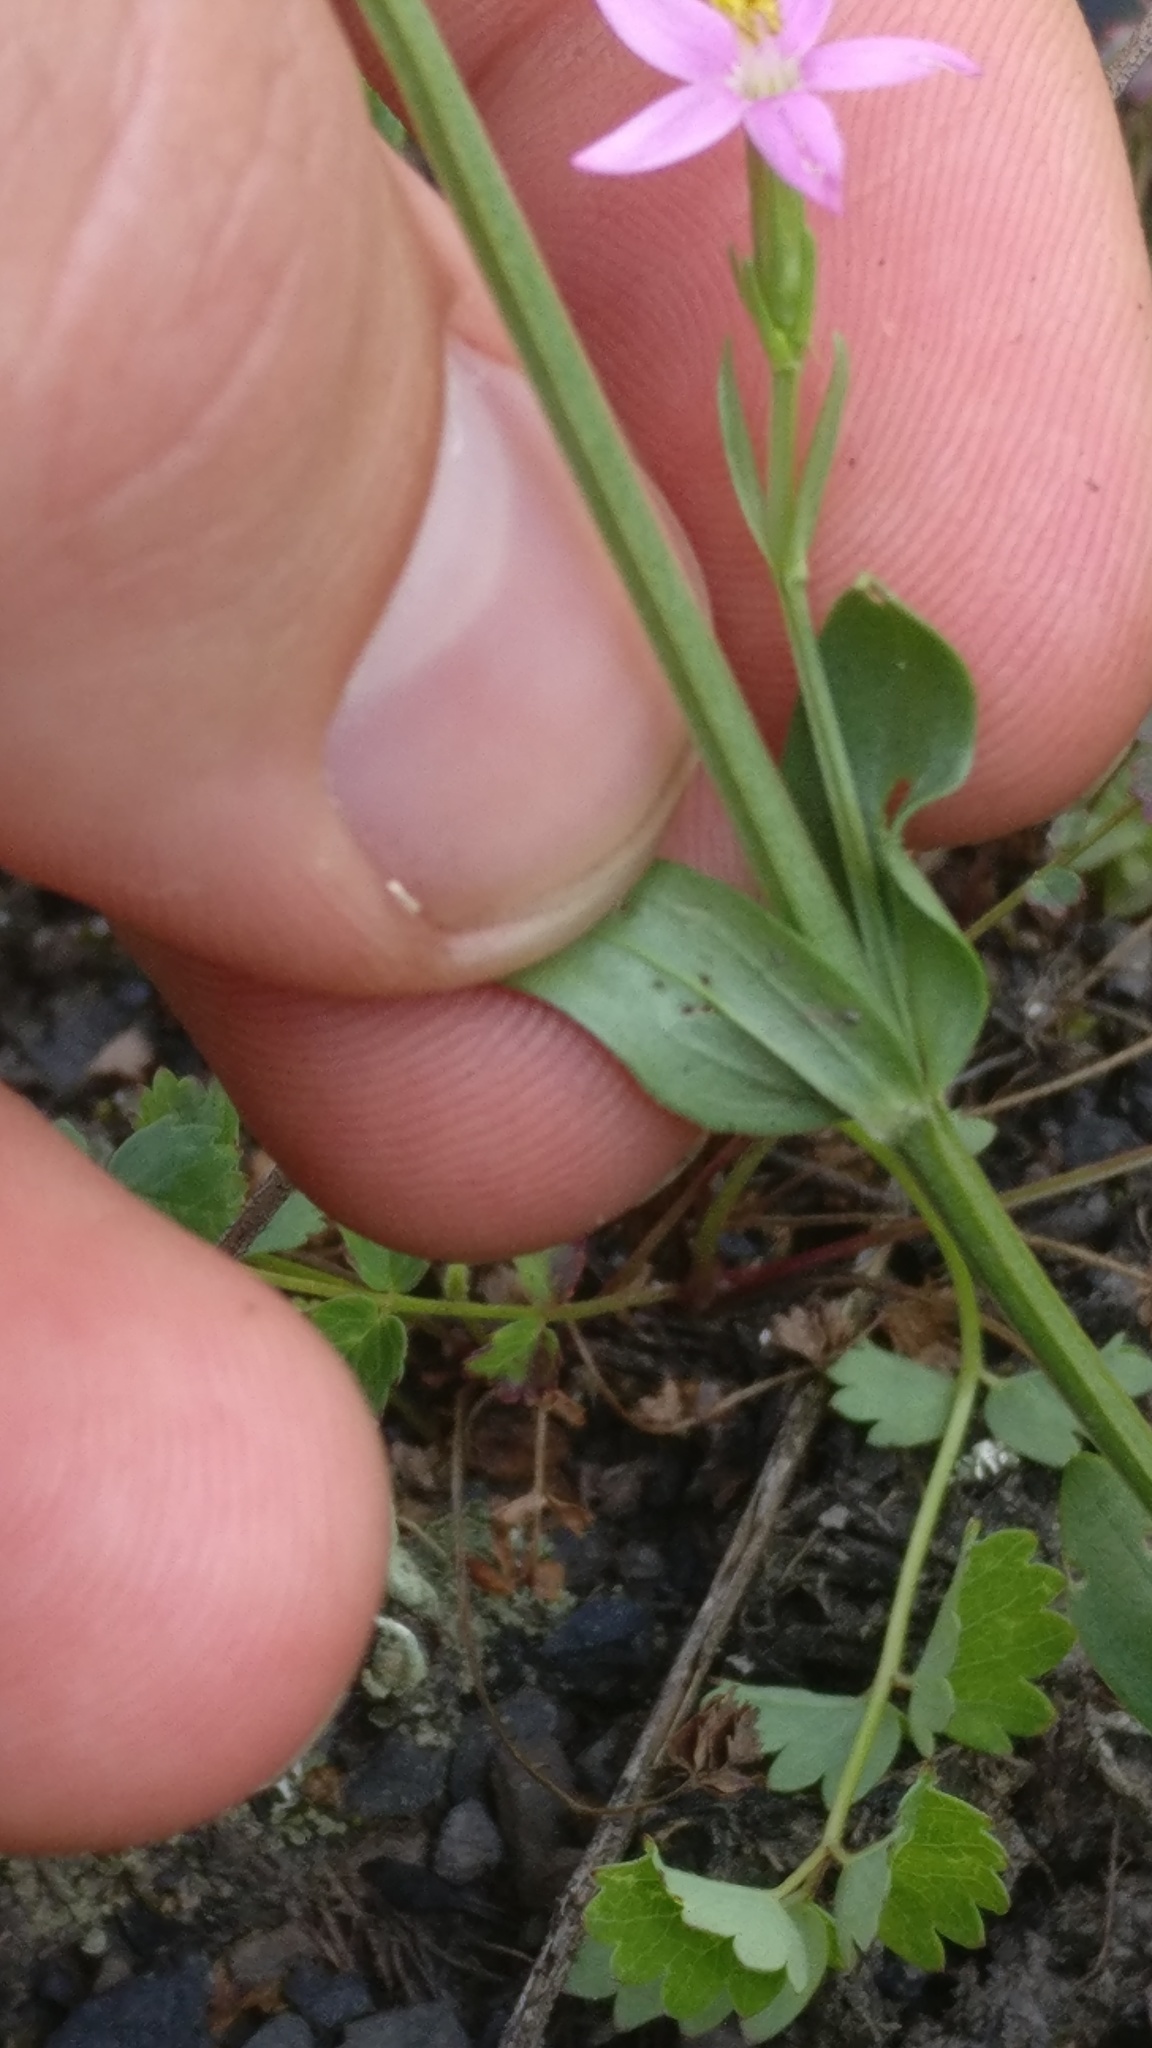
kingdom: Plantae
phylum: Tracheophyta
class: Magnoliopsida
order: Gentianales
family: Gentianaceae
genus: Centaurium
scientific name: Centaurium erythraea
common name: Common centaury
